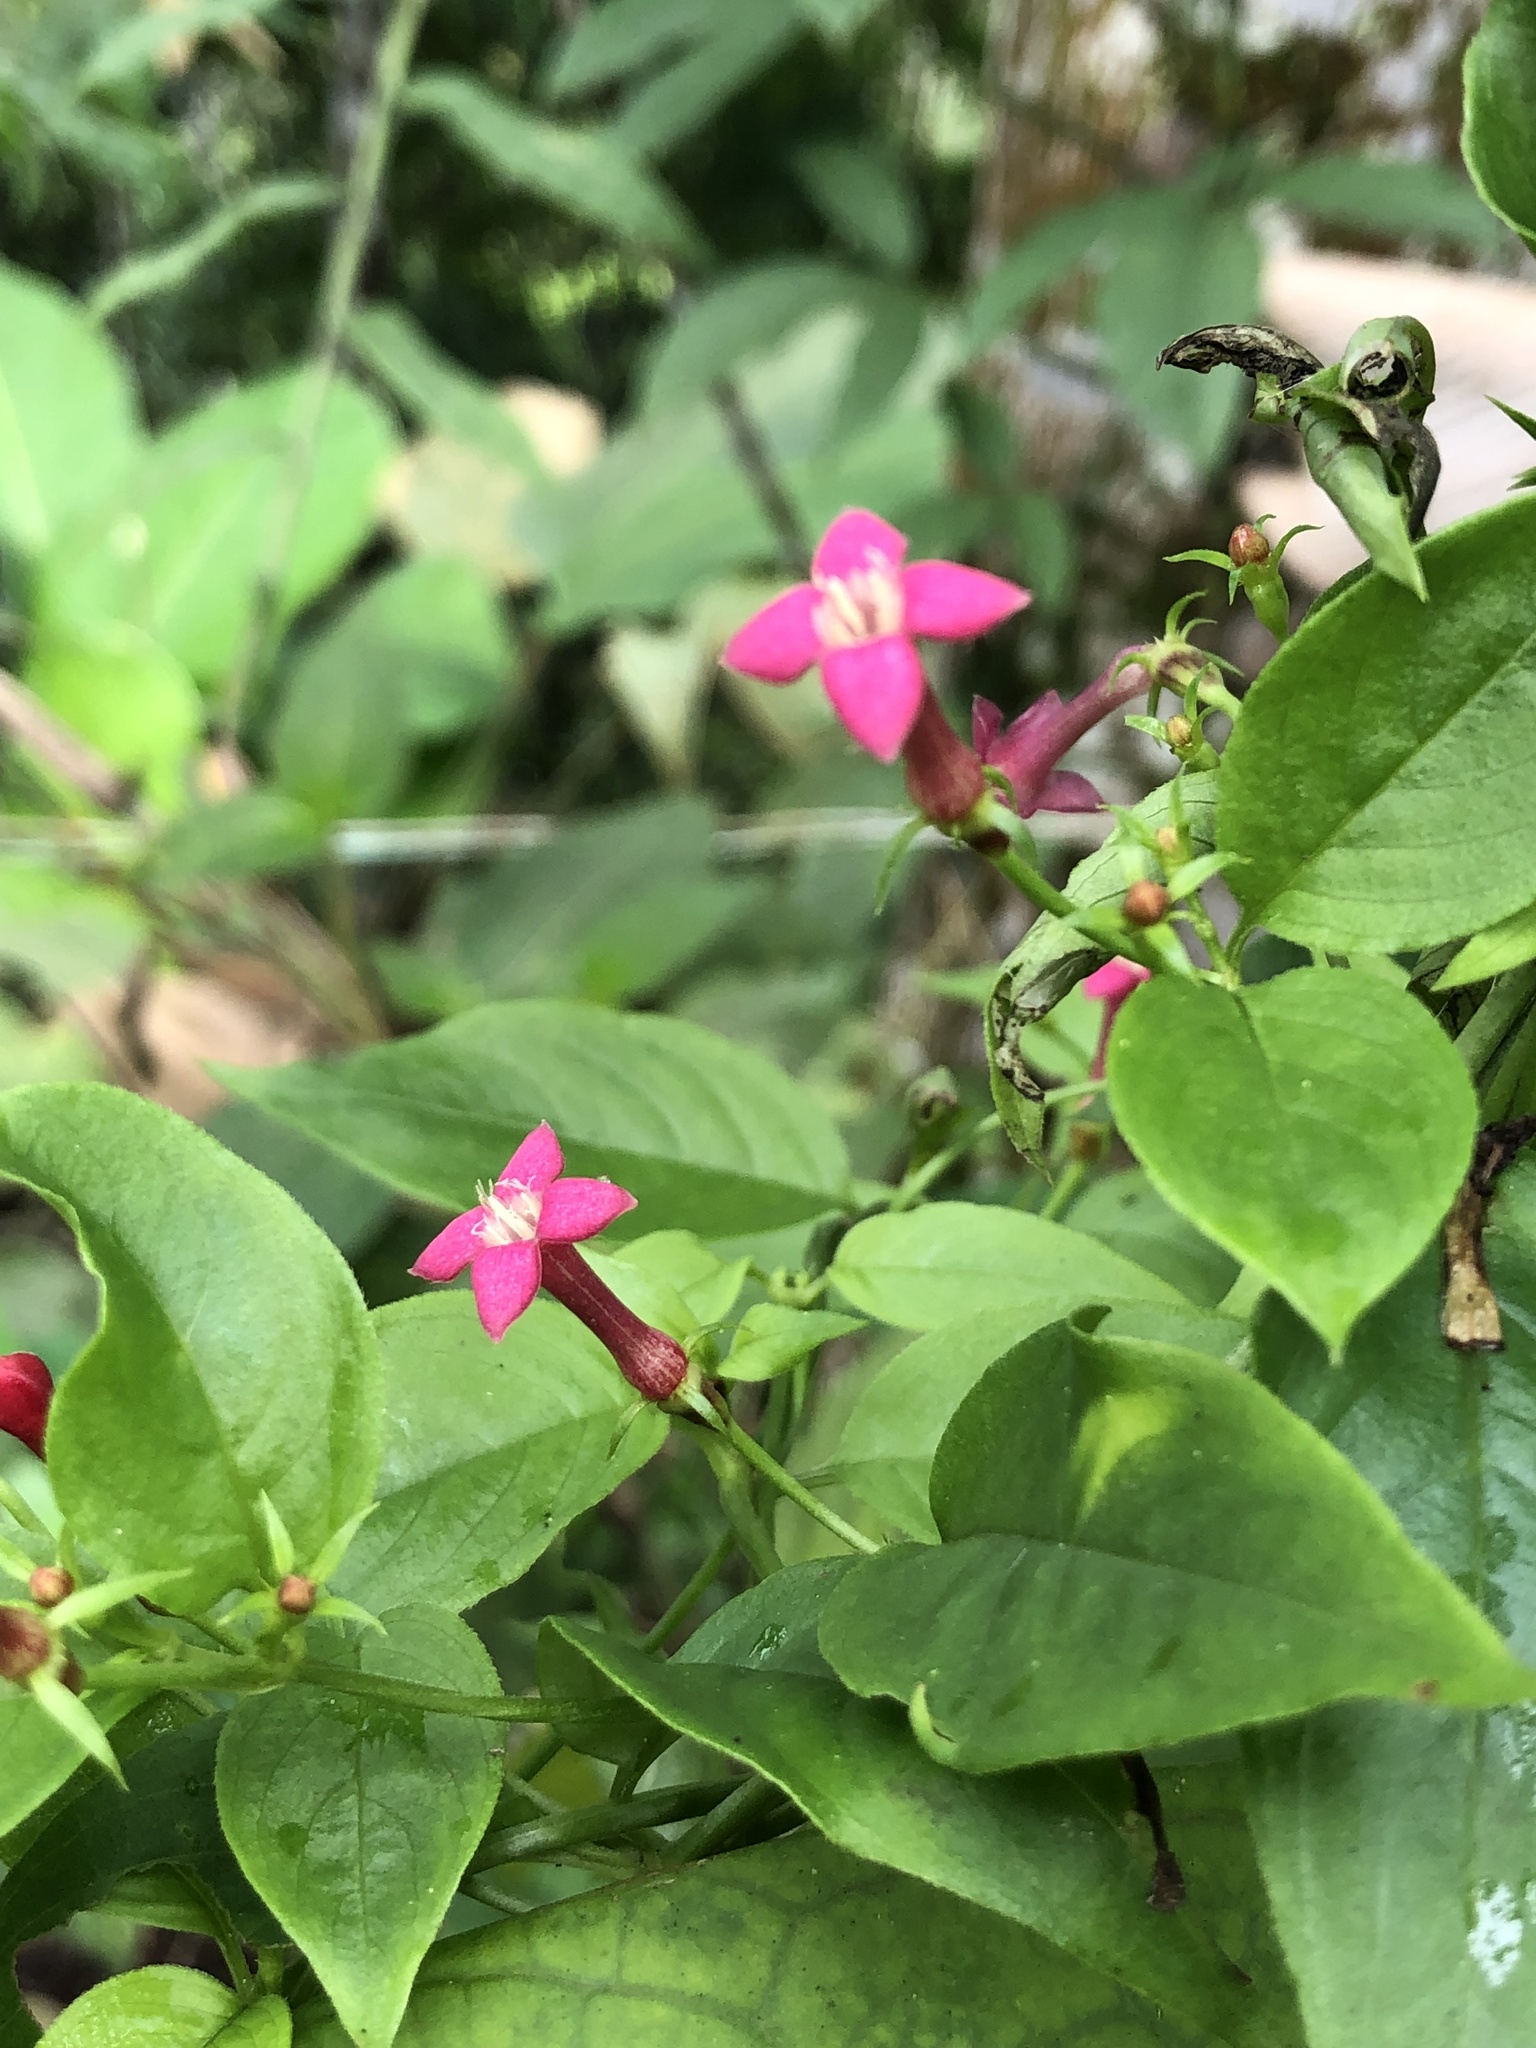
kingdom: Plantae
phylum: Tracheophyta
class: Magnoliopsida
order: Gentianales
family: Rubiaceae
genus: Manettia
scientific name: Manettia reclinata
